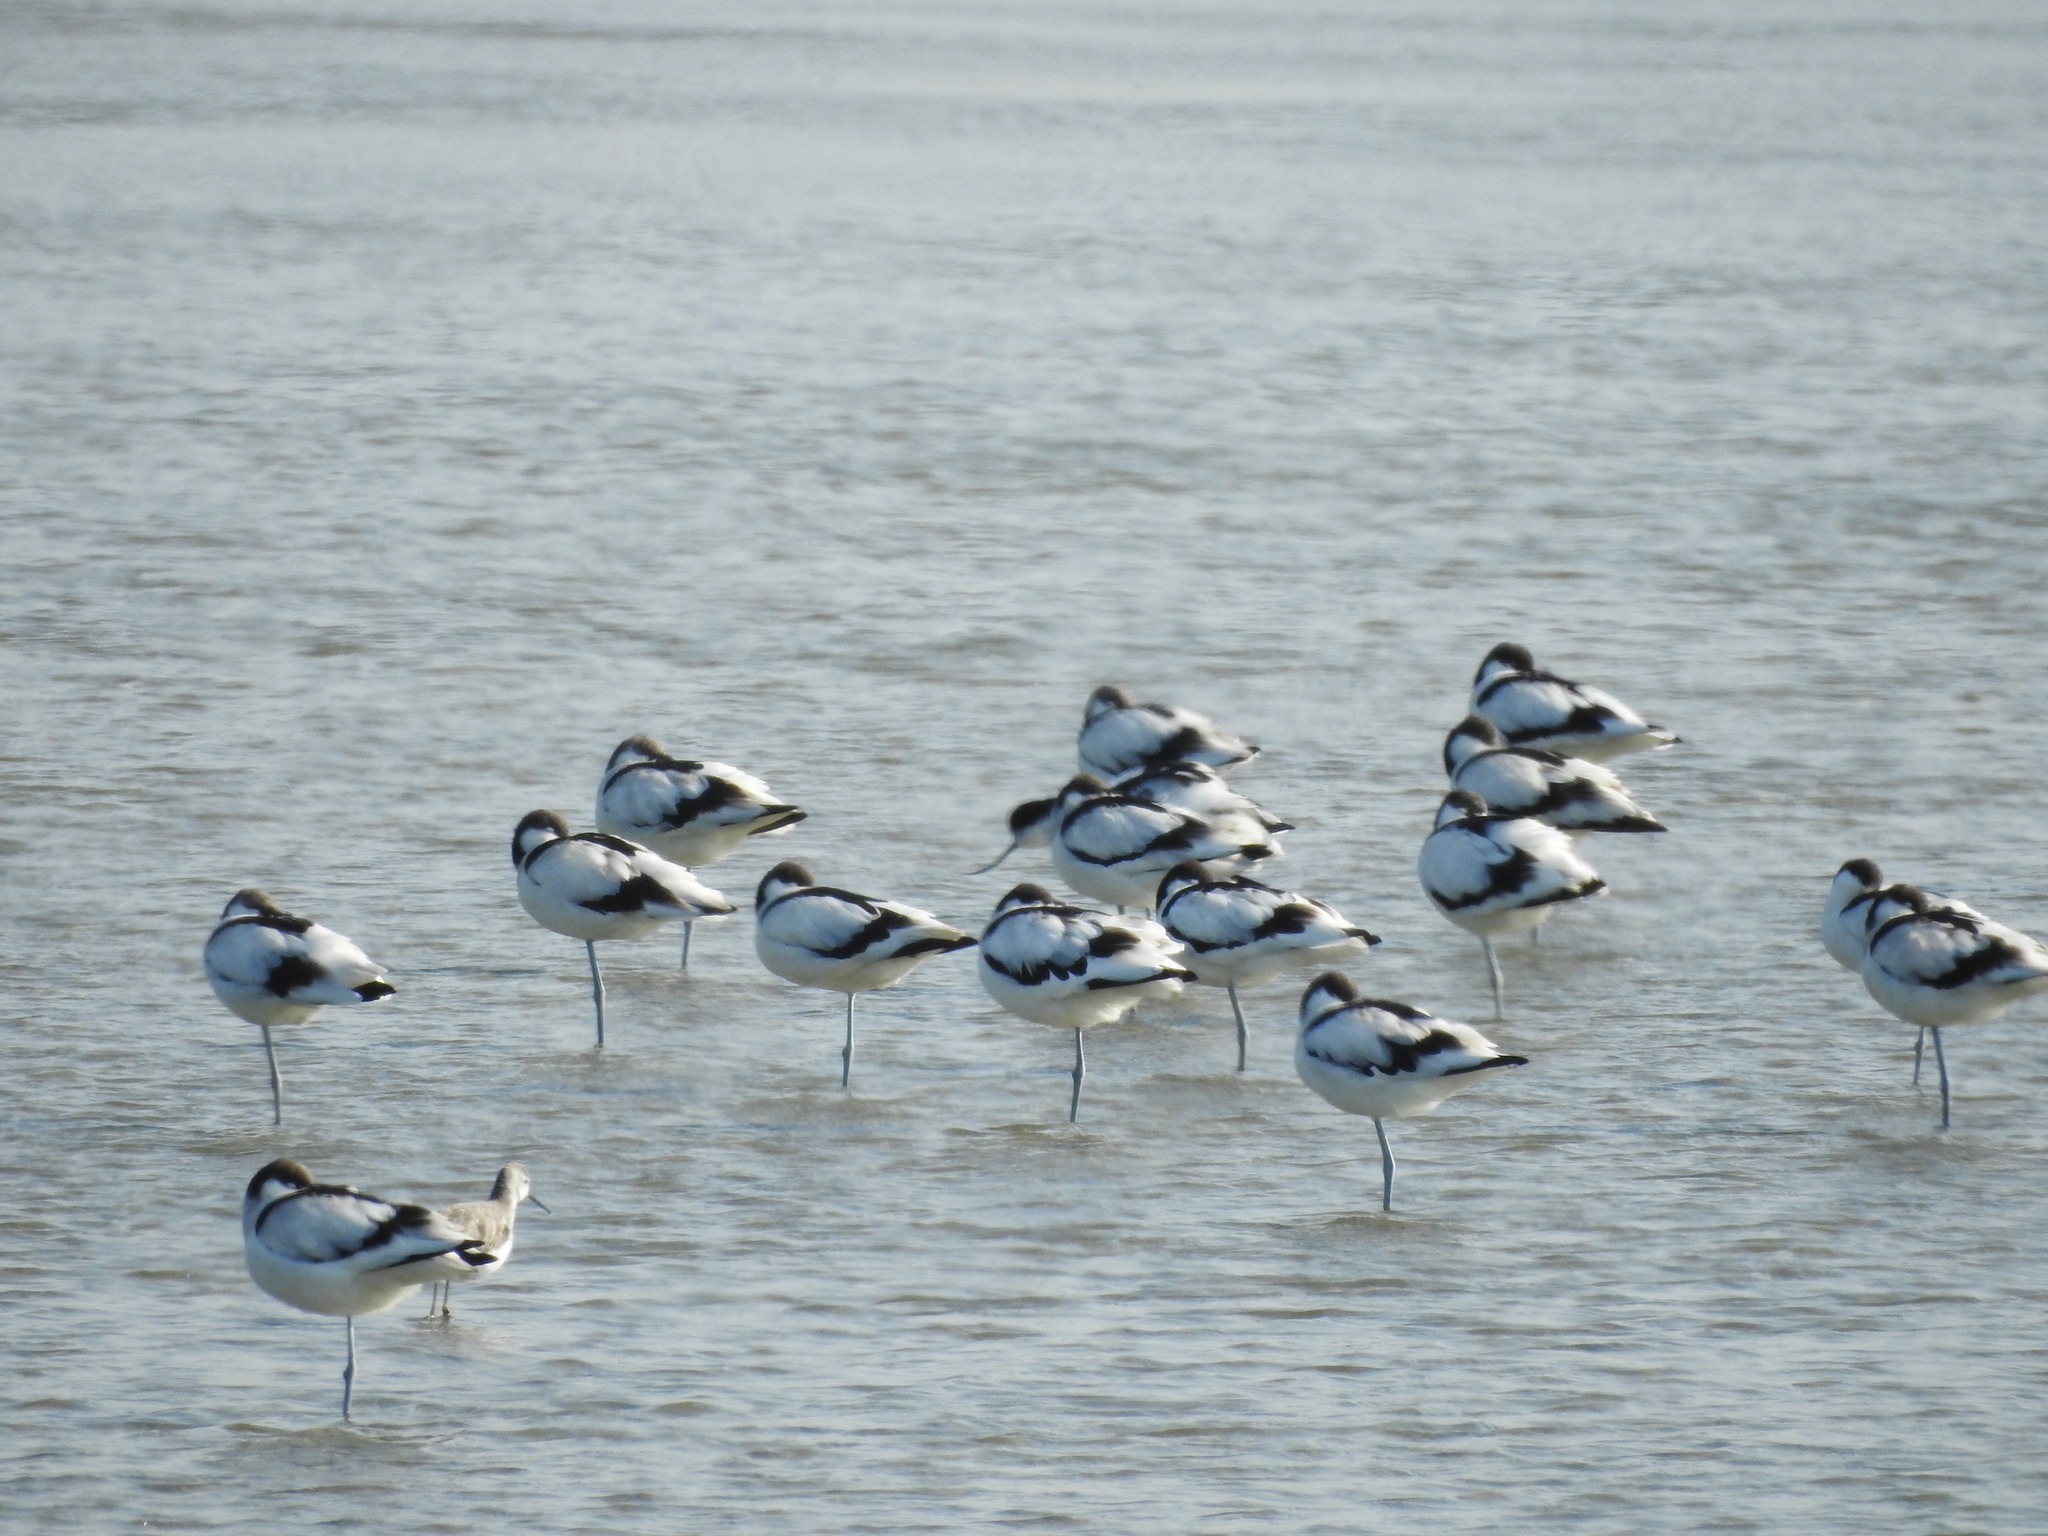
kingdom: Animalia
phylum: Chordata
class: Aves
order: Charadriiformes
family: Recurvirostridae
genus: Recurvirostra
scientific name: Recurvirostra avosetta
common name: Pied avocet
